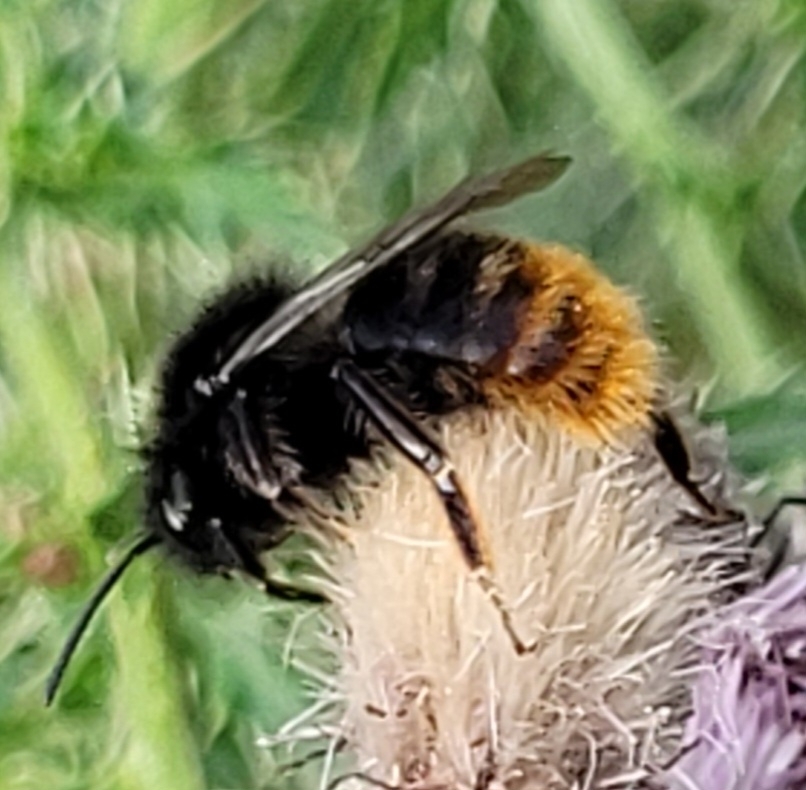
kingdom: Animalia
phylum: Arthropoda
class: Insecta
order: Hymenoptera
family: Apidae
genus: Bombus
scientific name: Bombus rupestris
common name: Hill cuckoo-bee
